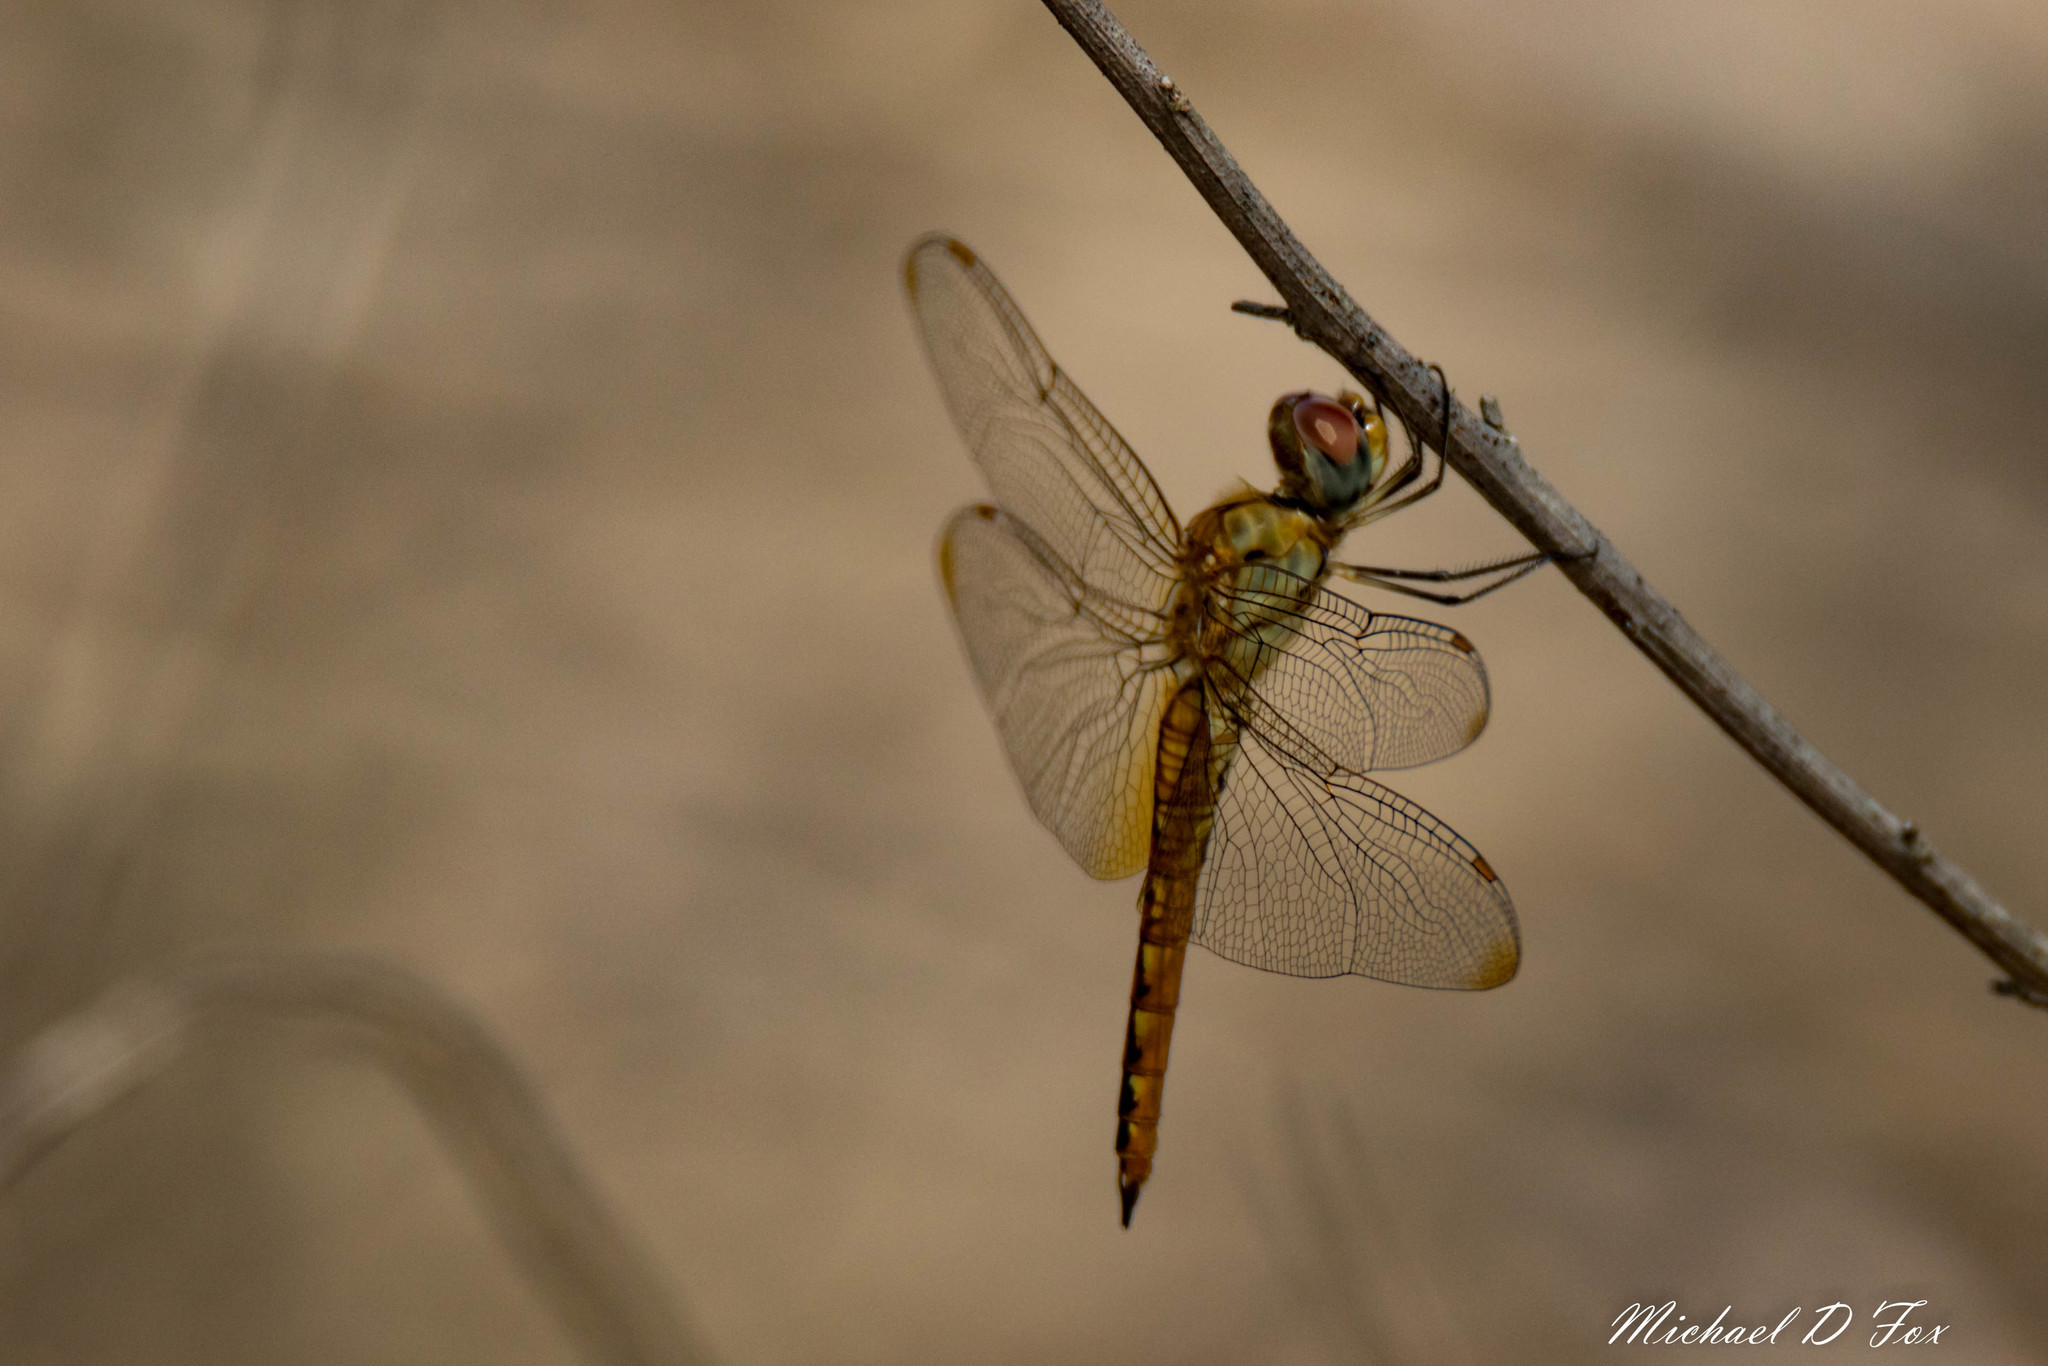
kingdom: Animalia
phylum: Arthropoda
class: Insecta
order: Odonata
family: Libellulidae
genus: Pantala
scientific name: Pantala flavescens
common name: Wandering glider
